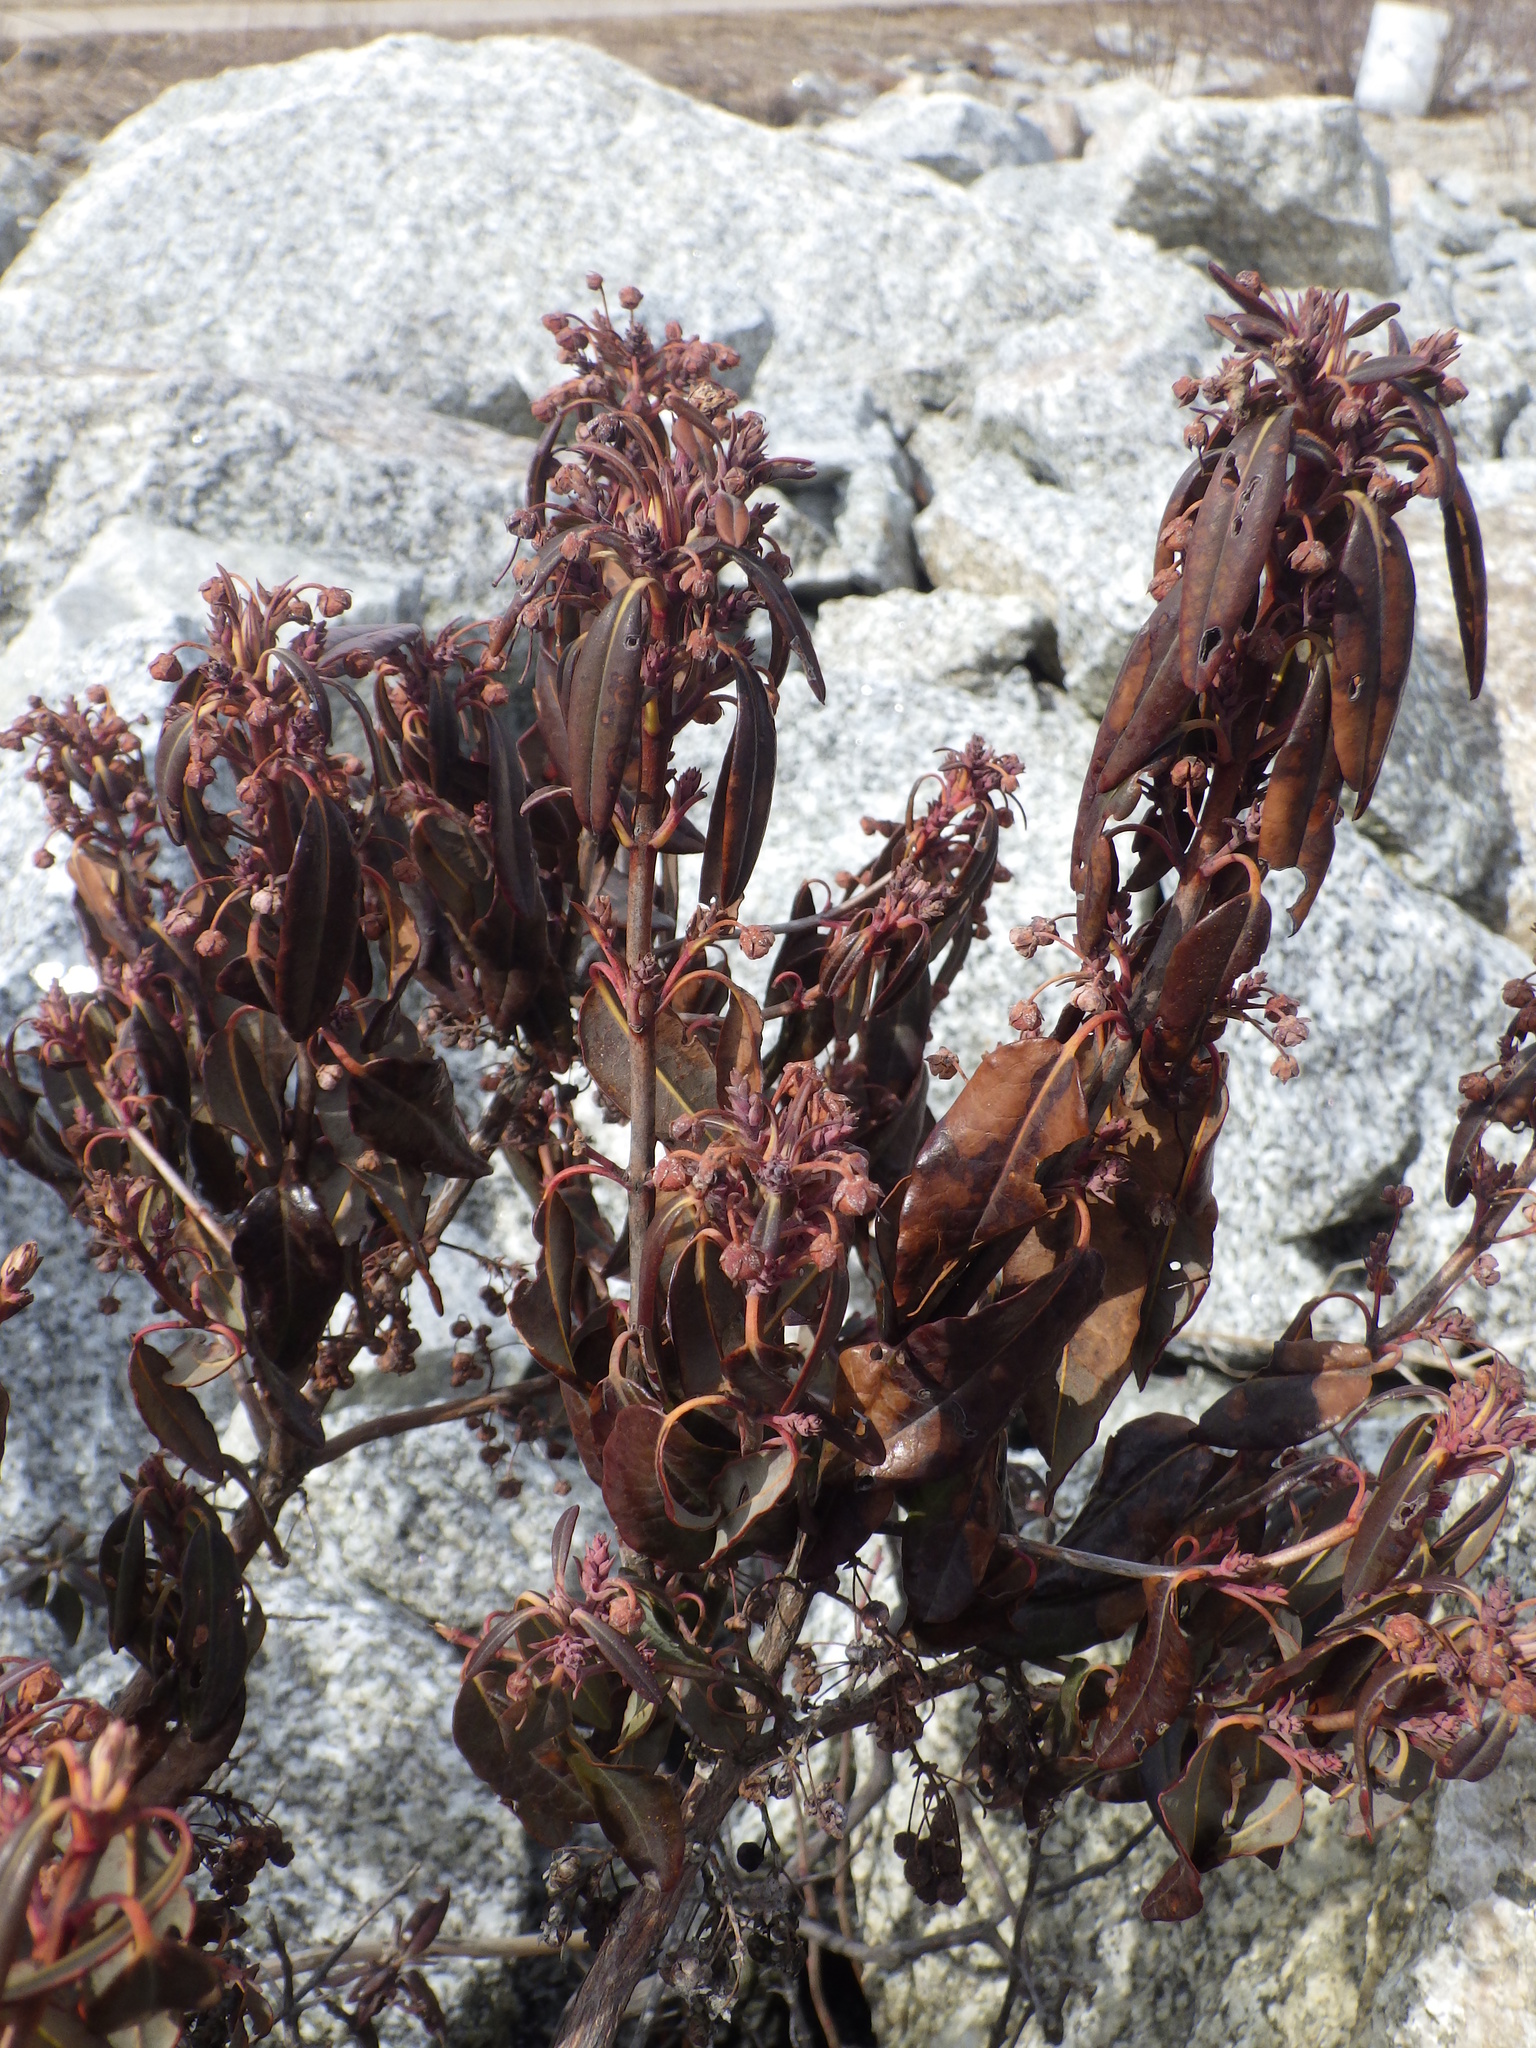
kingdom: Plantae
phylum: Tracheophyta
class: Magnoliopsida
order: Ericales
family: Ericaceae
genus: Kalmia
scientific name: Kalmia angustifolia
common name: Sheep-laurel
